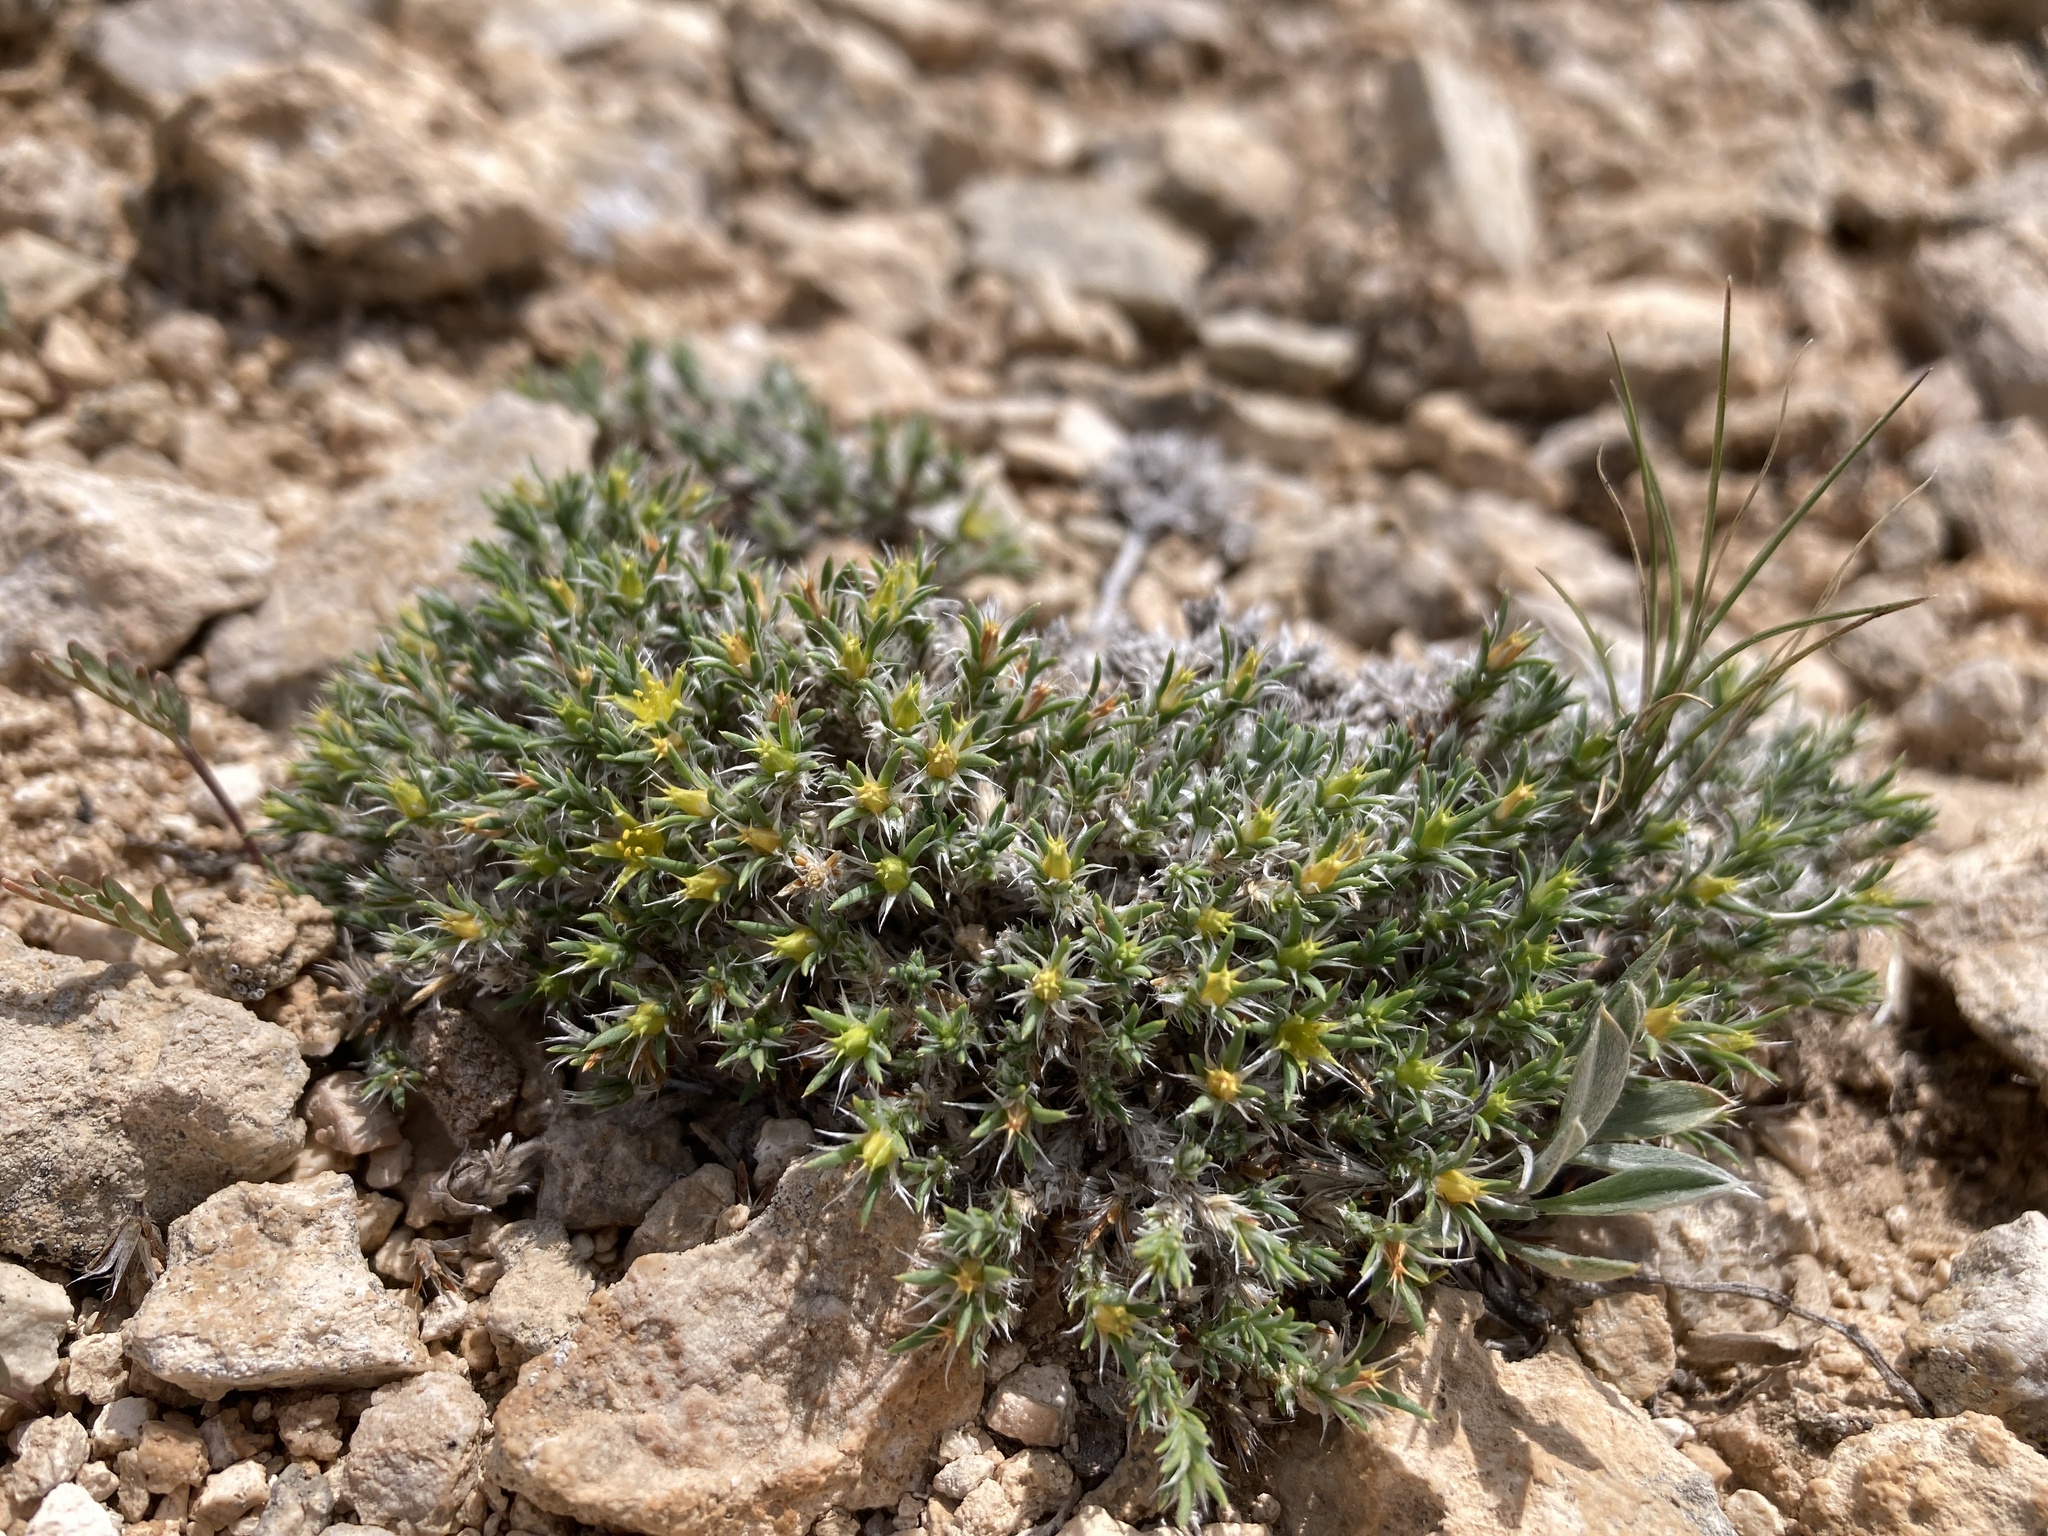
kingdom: Plantae
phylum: Tracheophyta
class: Magnoliopsida
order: Caryophyllales
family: Caryophyllaceae
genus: Paronychia
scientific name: Paronychia sessiliflora
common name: Creeping nailwort
